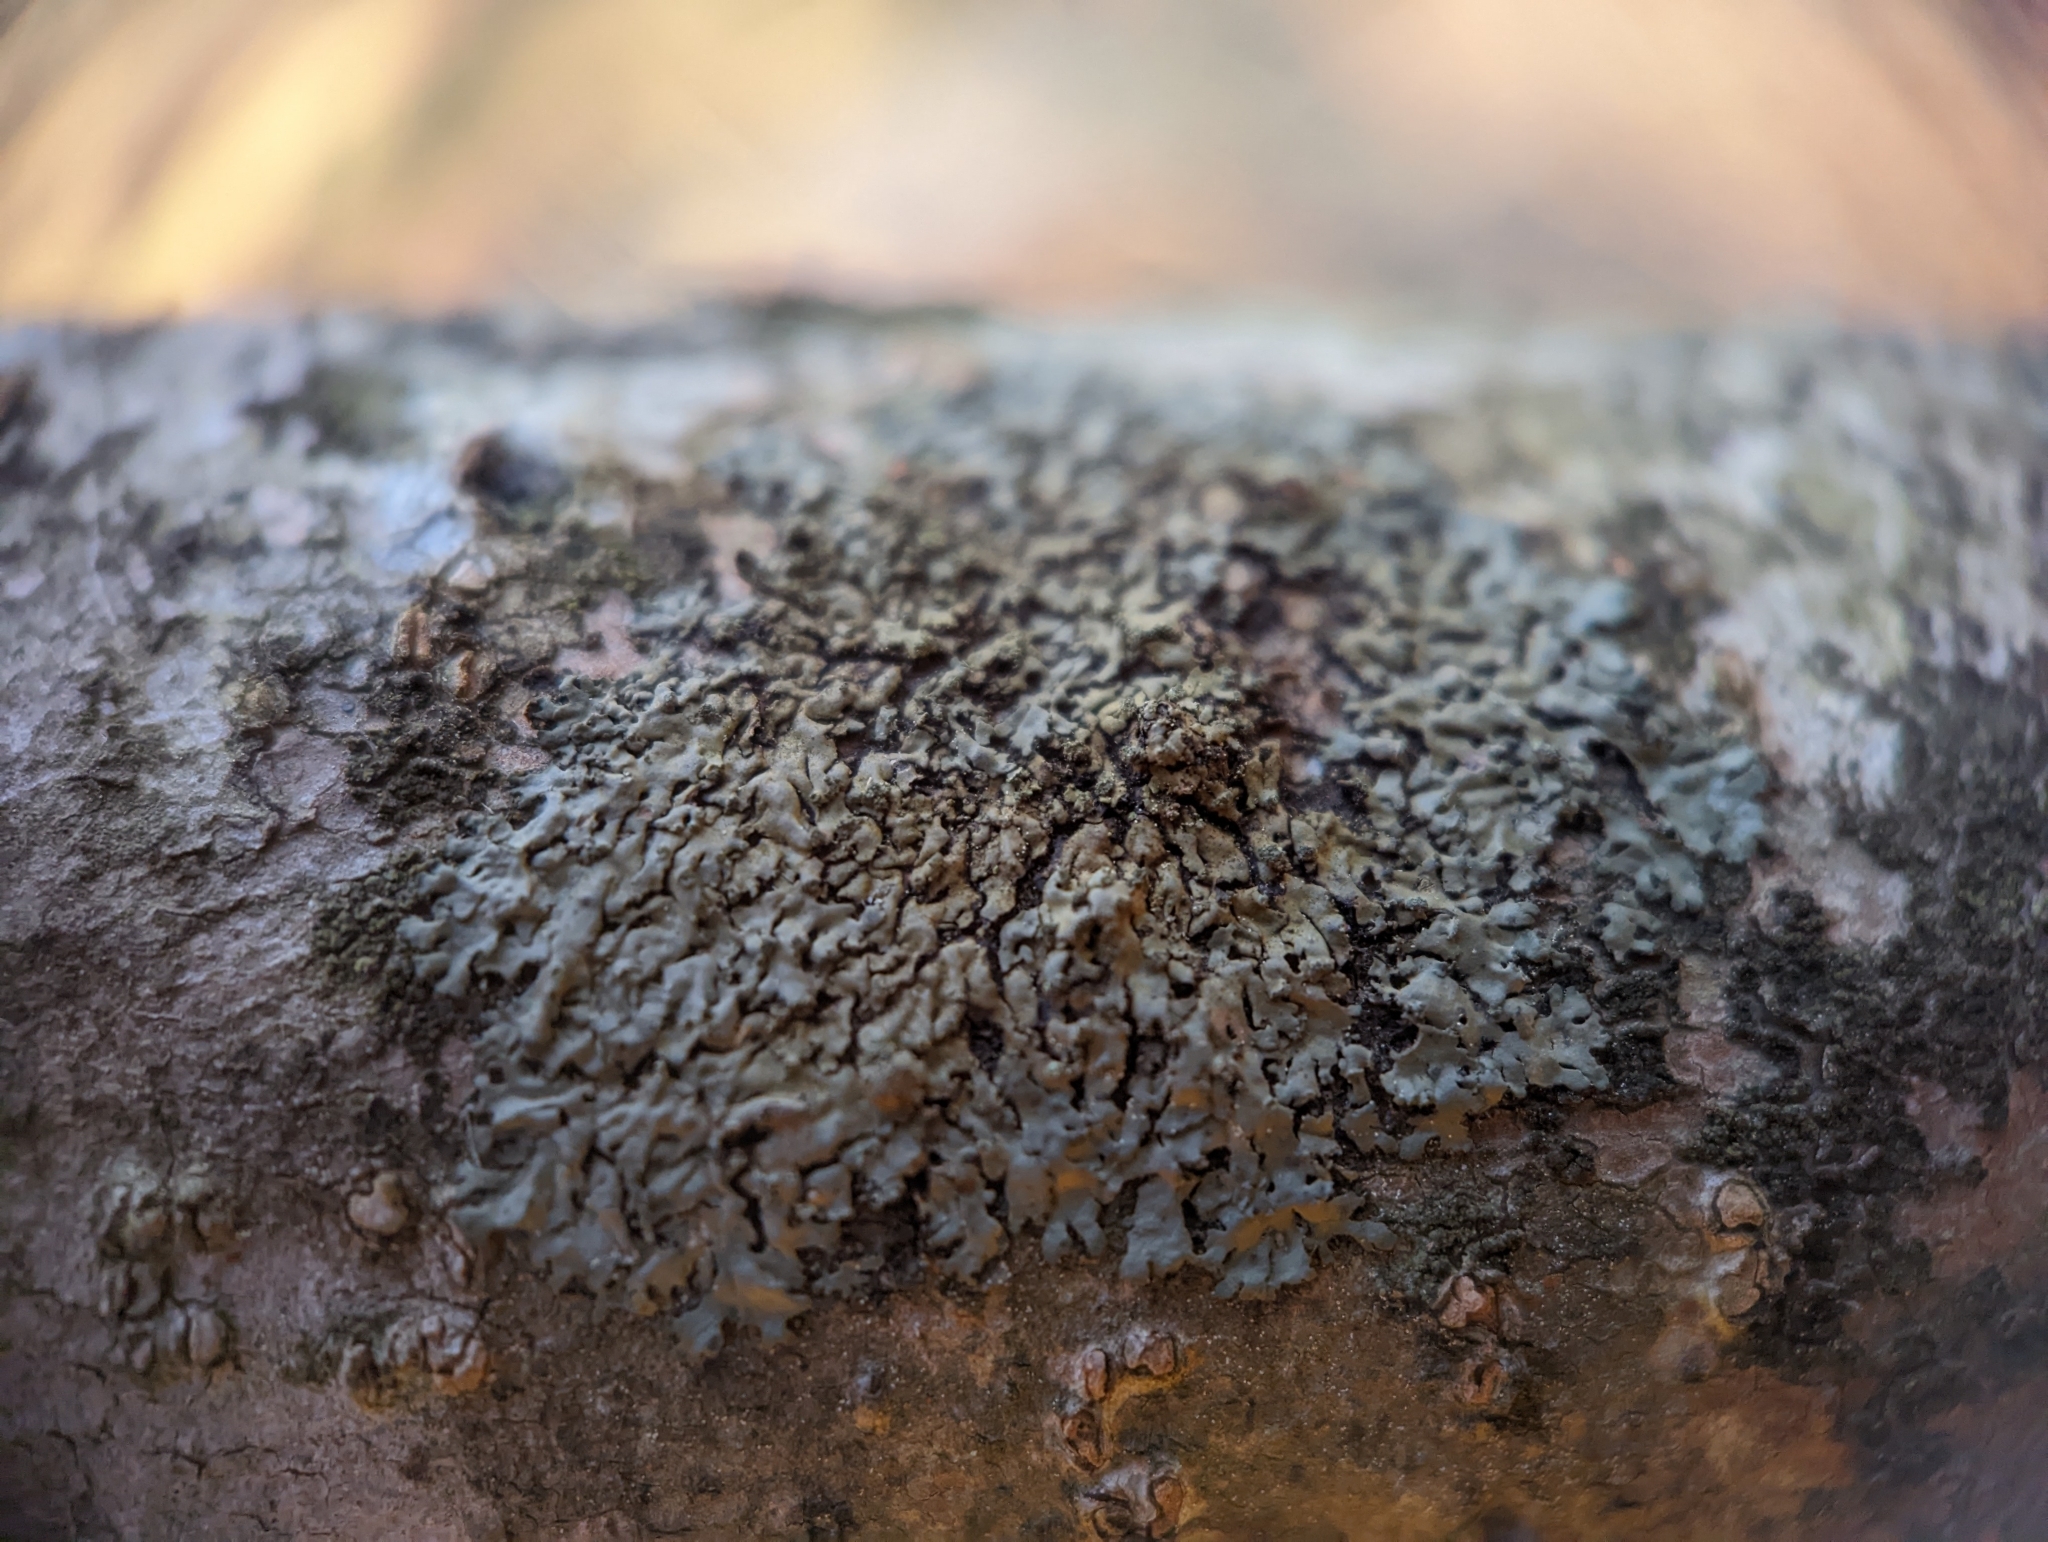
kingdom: Fungi
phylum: Ascomycota
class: Lecanoromycetes
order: Caliciales
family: Physciaceae
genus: Phaeophyscia
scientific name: Phaeophyscia rubropulchra
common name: Orange-cored shadow lichen
